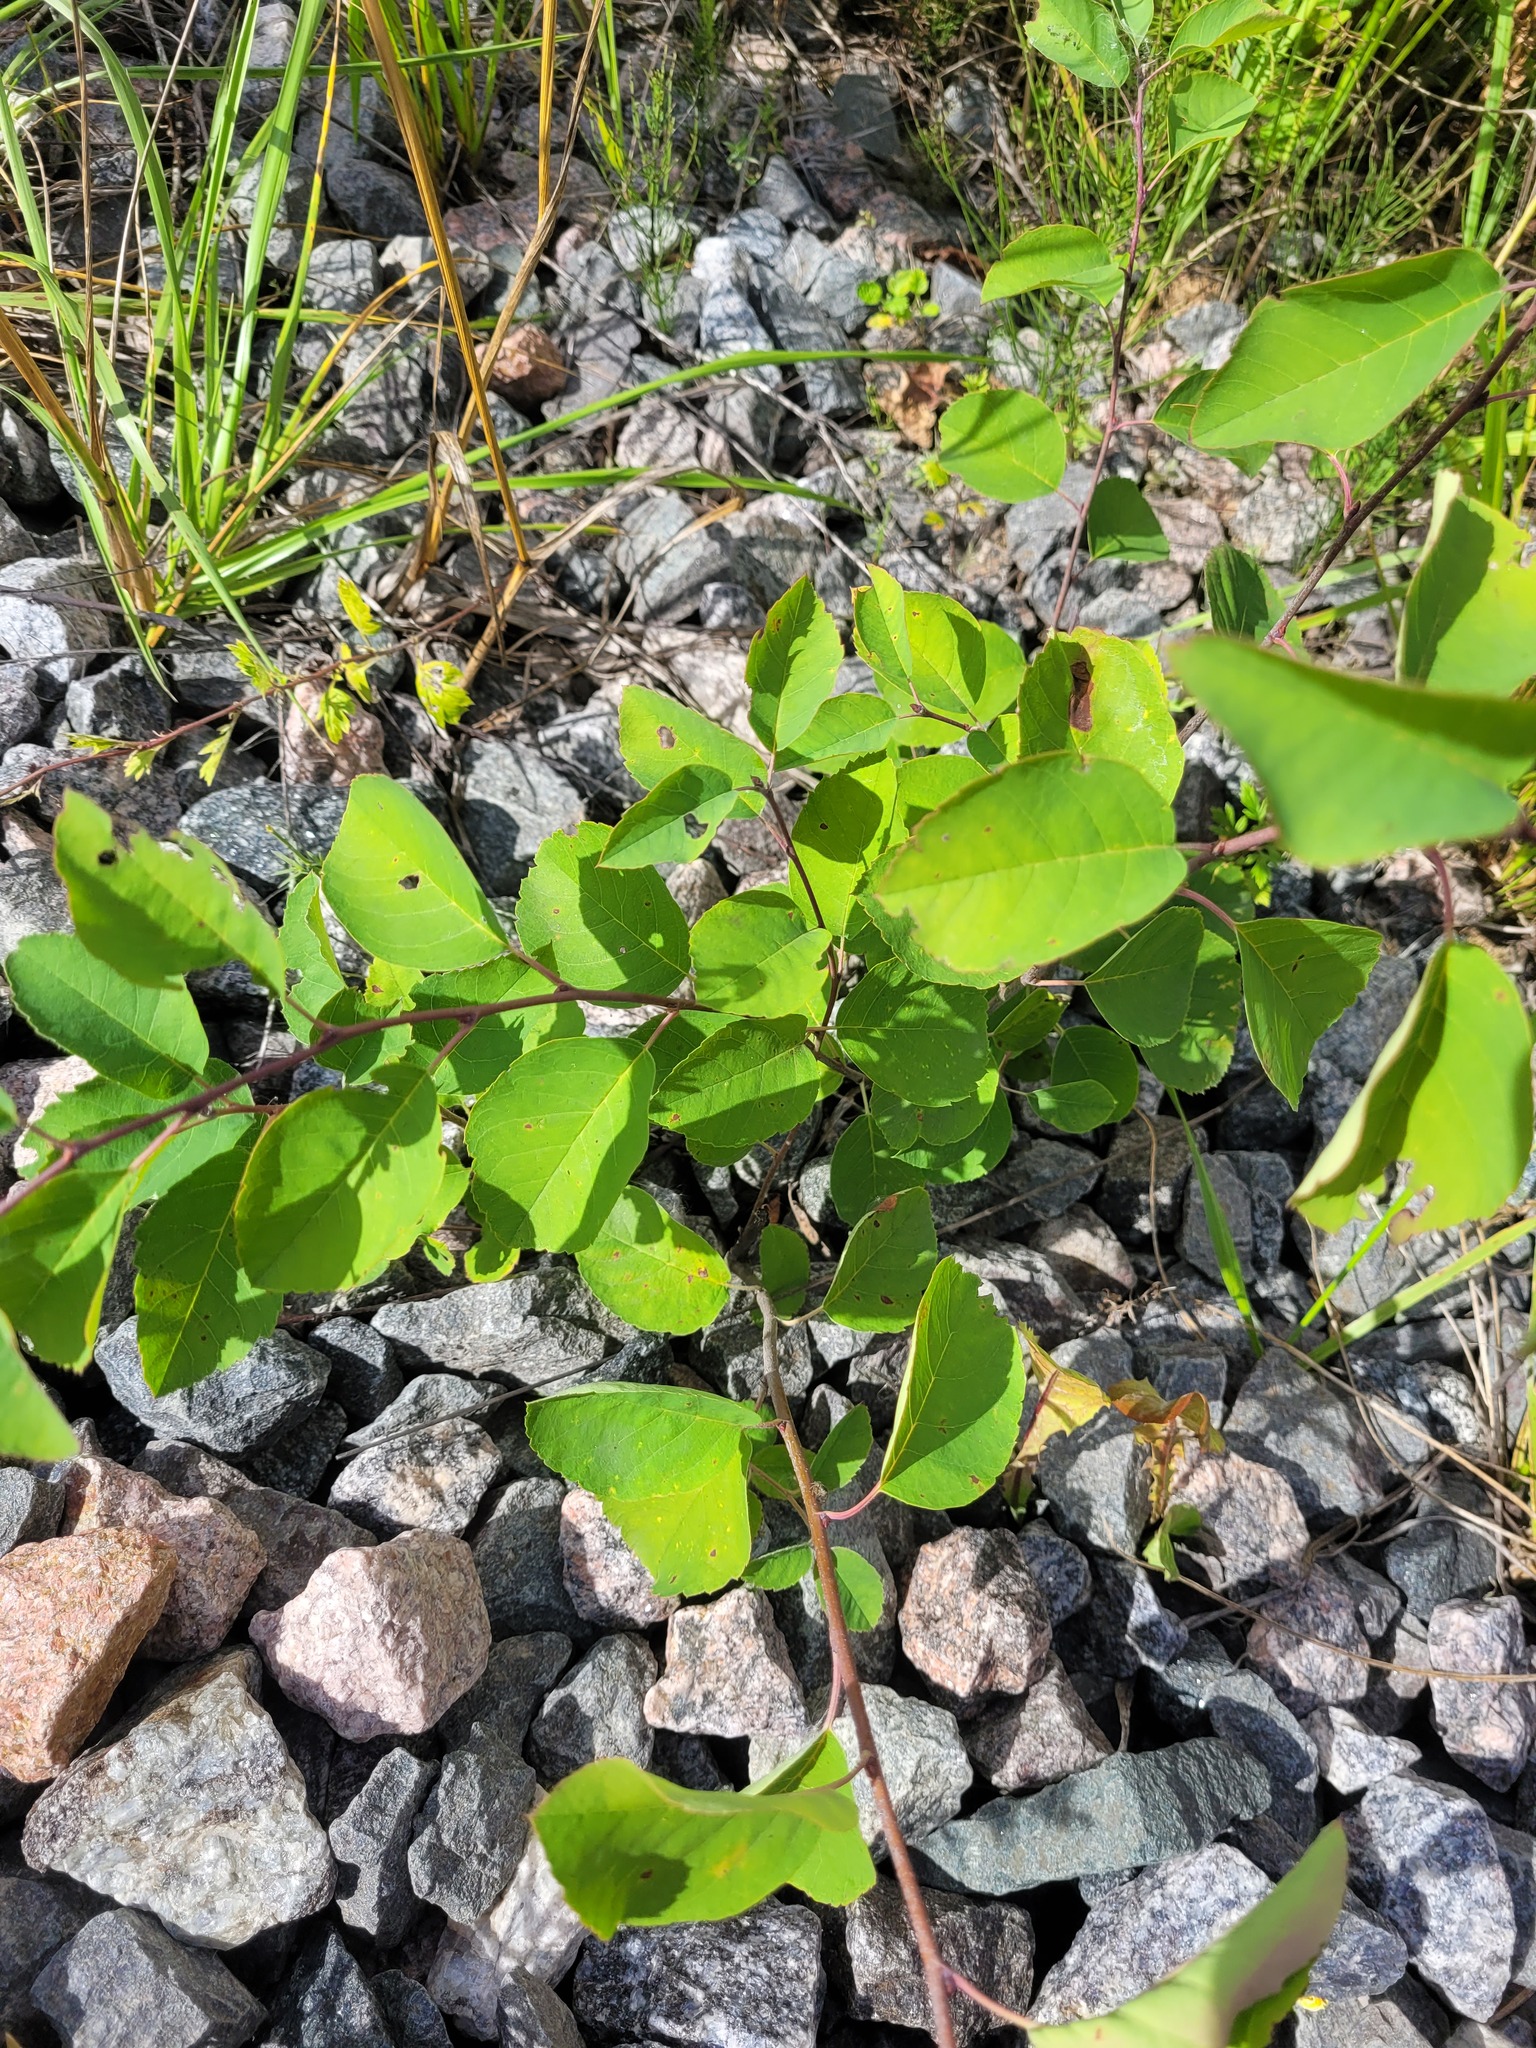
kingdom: Plantae
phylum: Tracheophyta
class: Magnoliopsida
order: Rosales
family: Rosaceae
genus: Amelanchier
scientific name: Amelanchier
